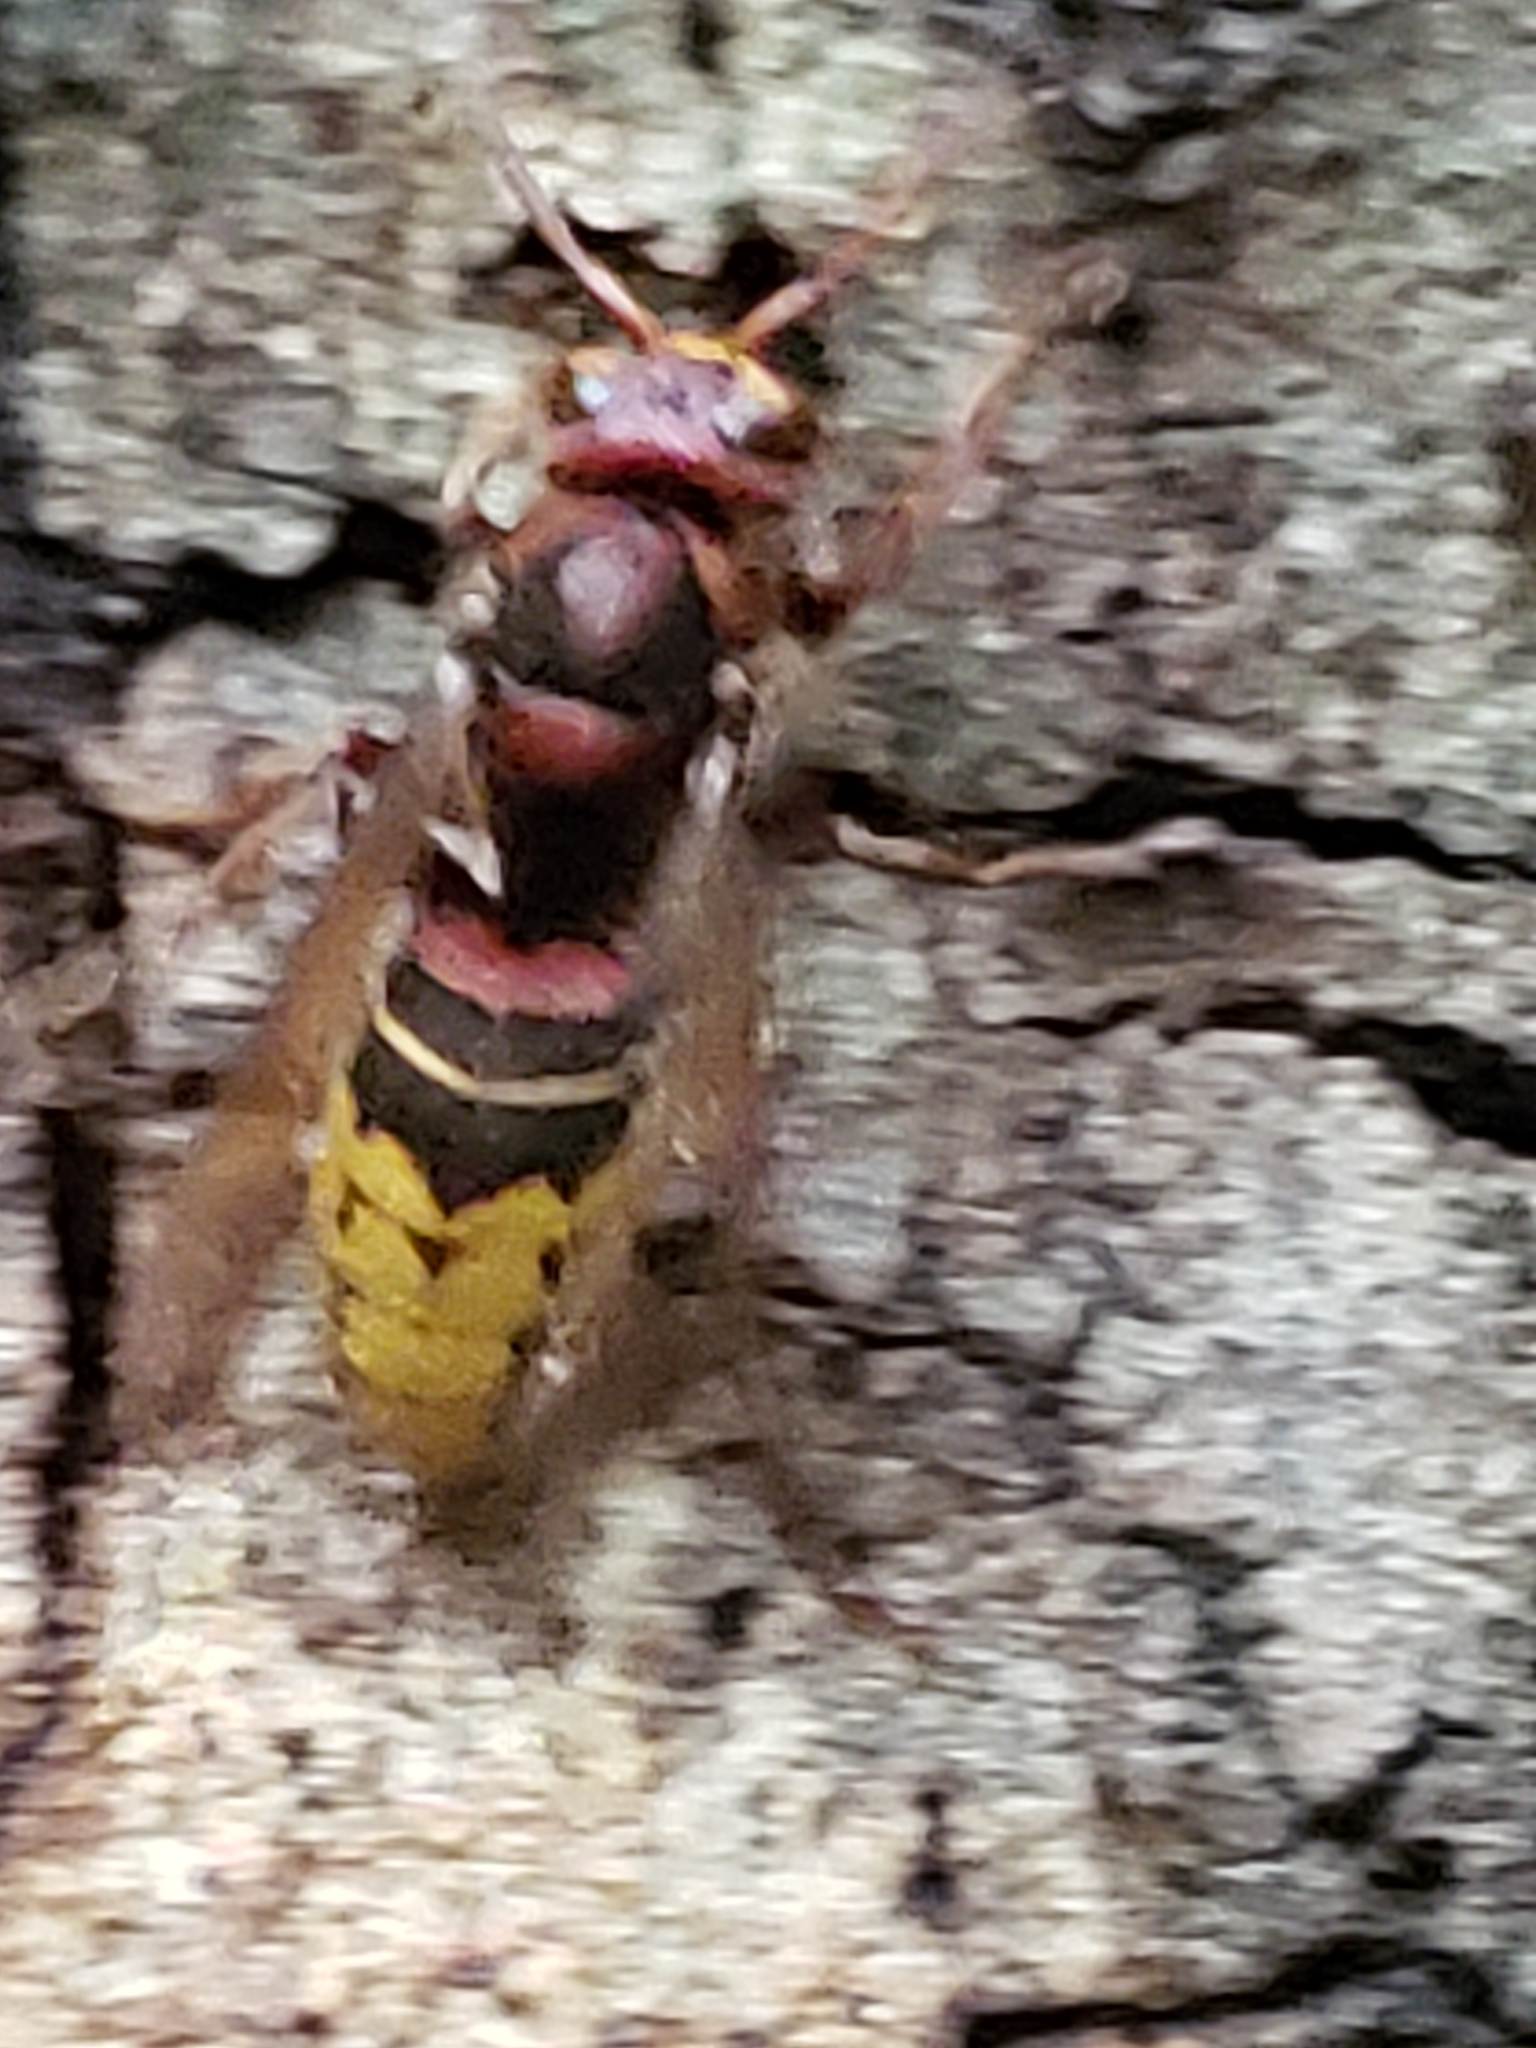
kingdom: Animalia
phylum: Arthropoda
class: Insecta
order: Hymenoptera
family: Vespidae
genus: Vespa
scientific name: Vespa crabro
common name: Hornet
